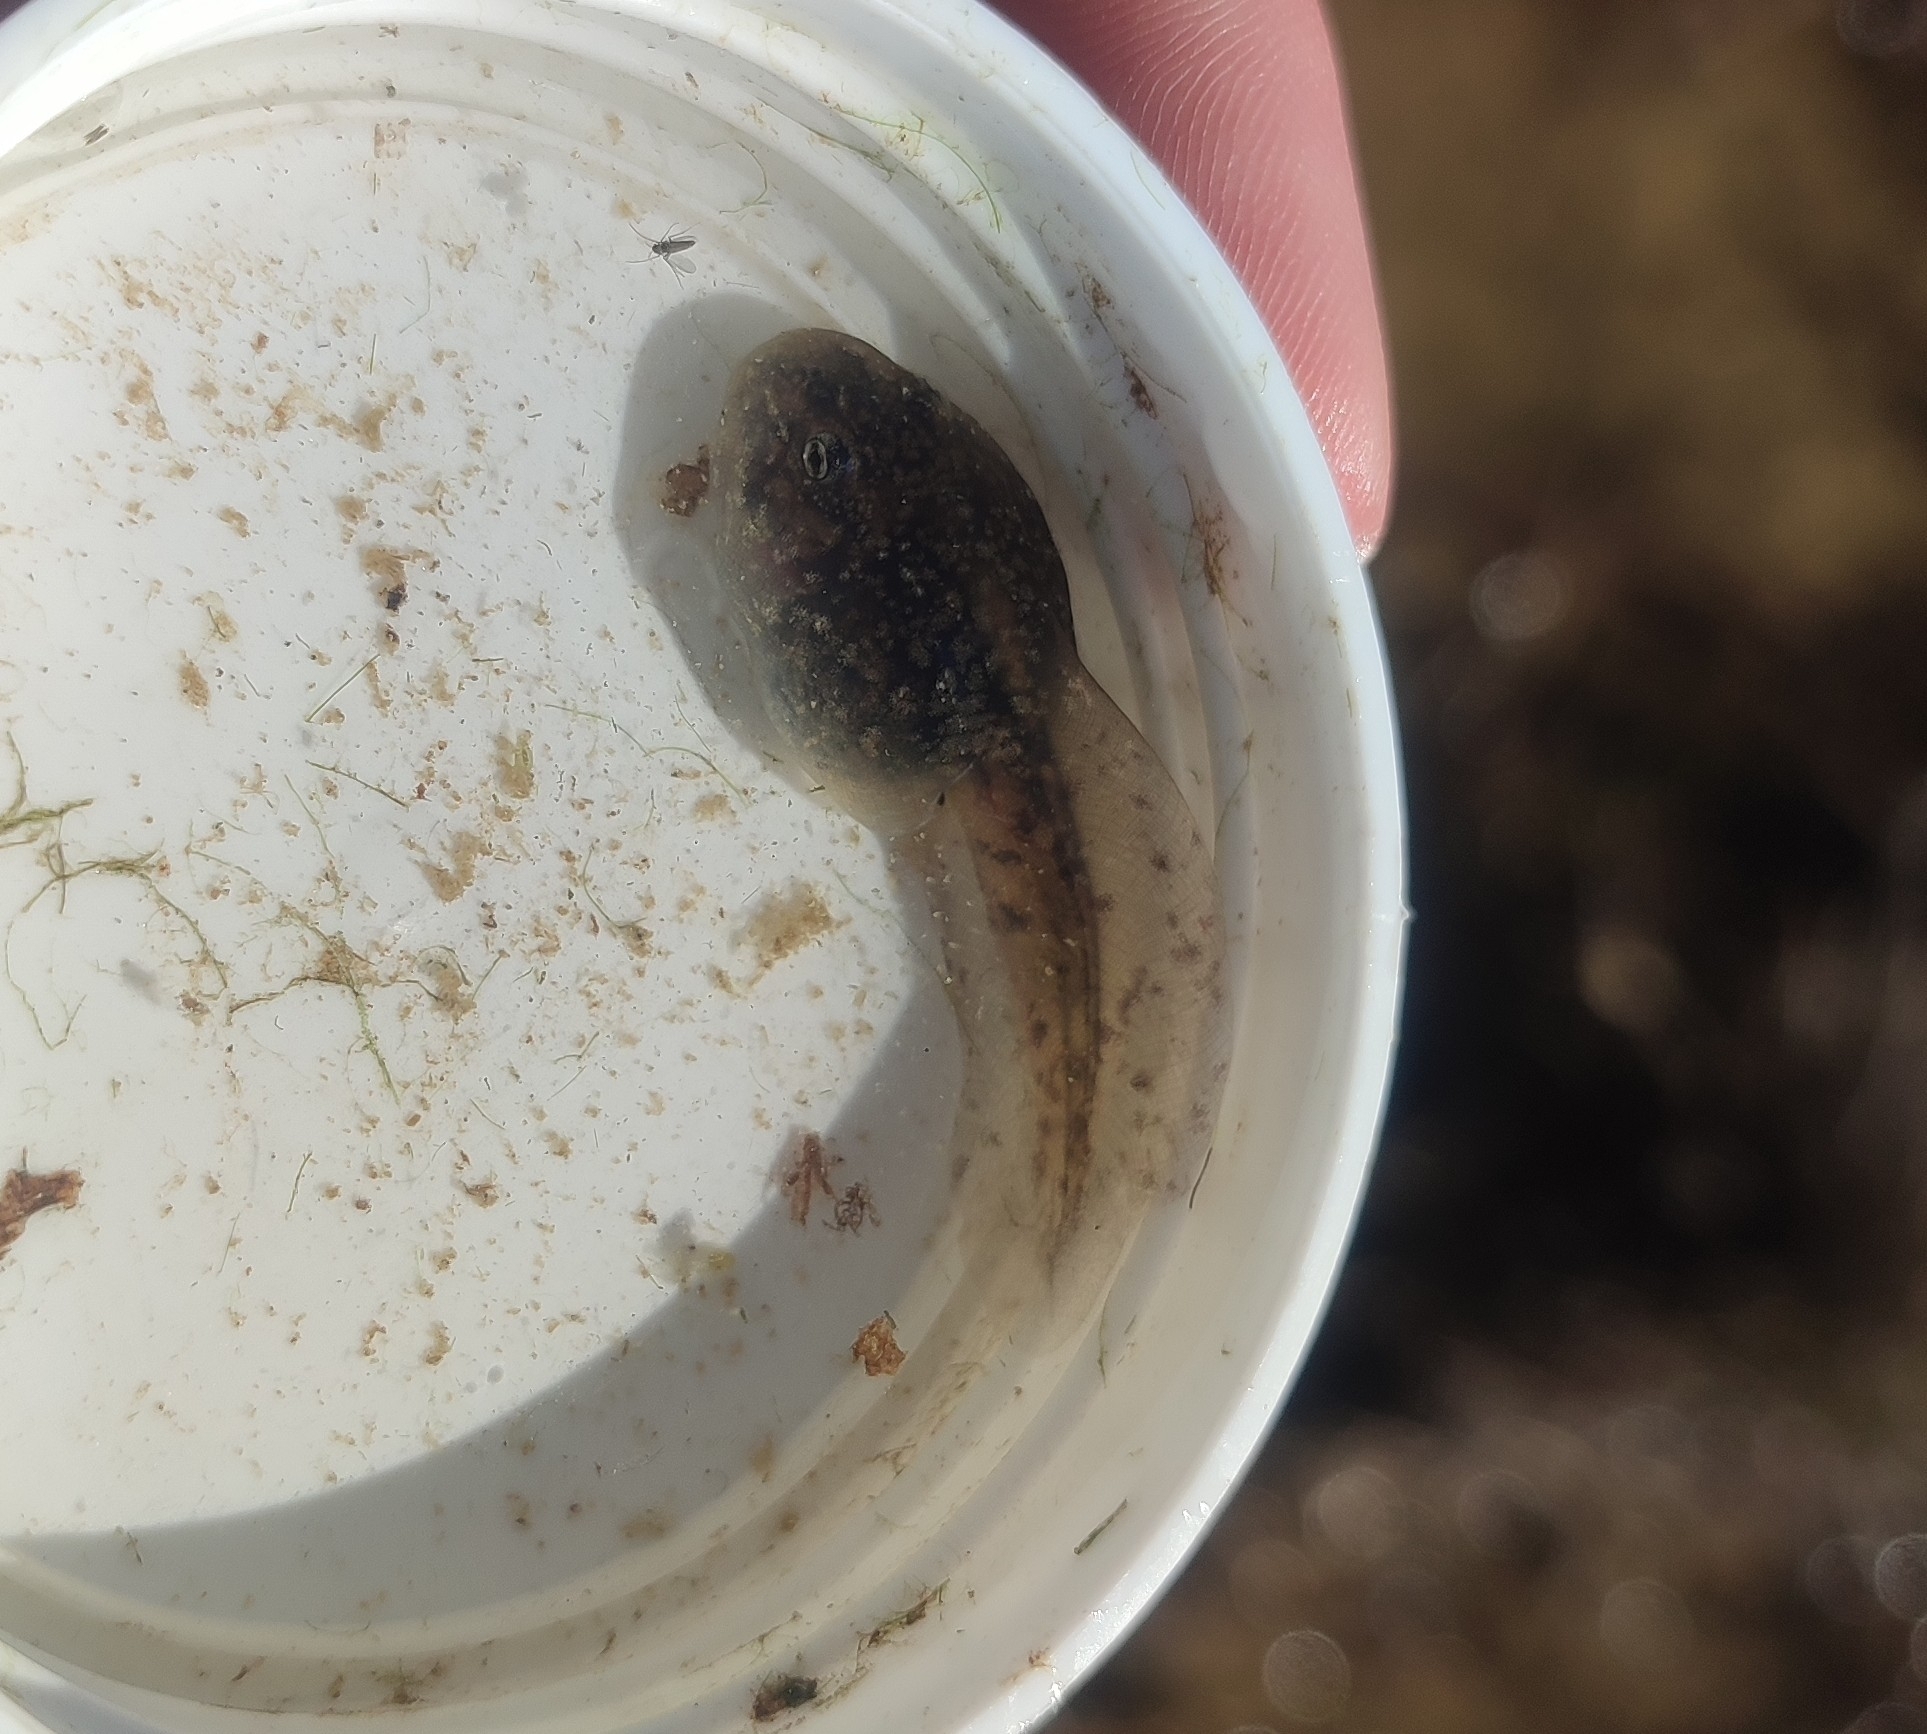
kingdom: Animalia
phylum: Chordata
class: Amphibia
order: Anura
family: Pelodytidae
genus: Pelodytes
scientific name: Pelodytes punctatus
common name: Parsley frog
